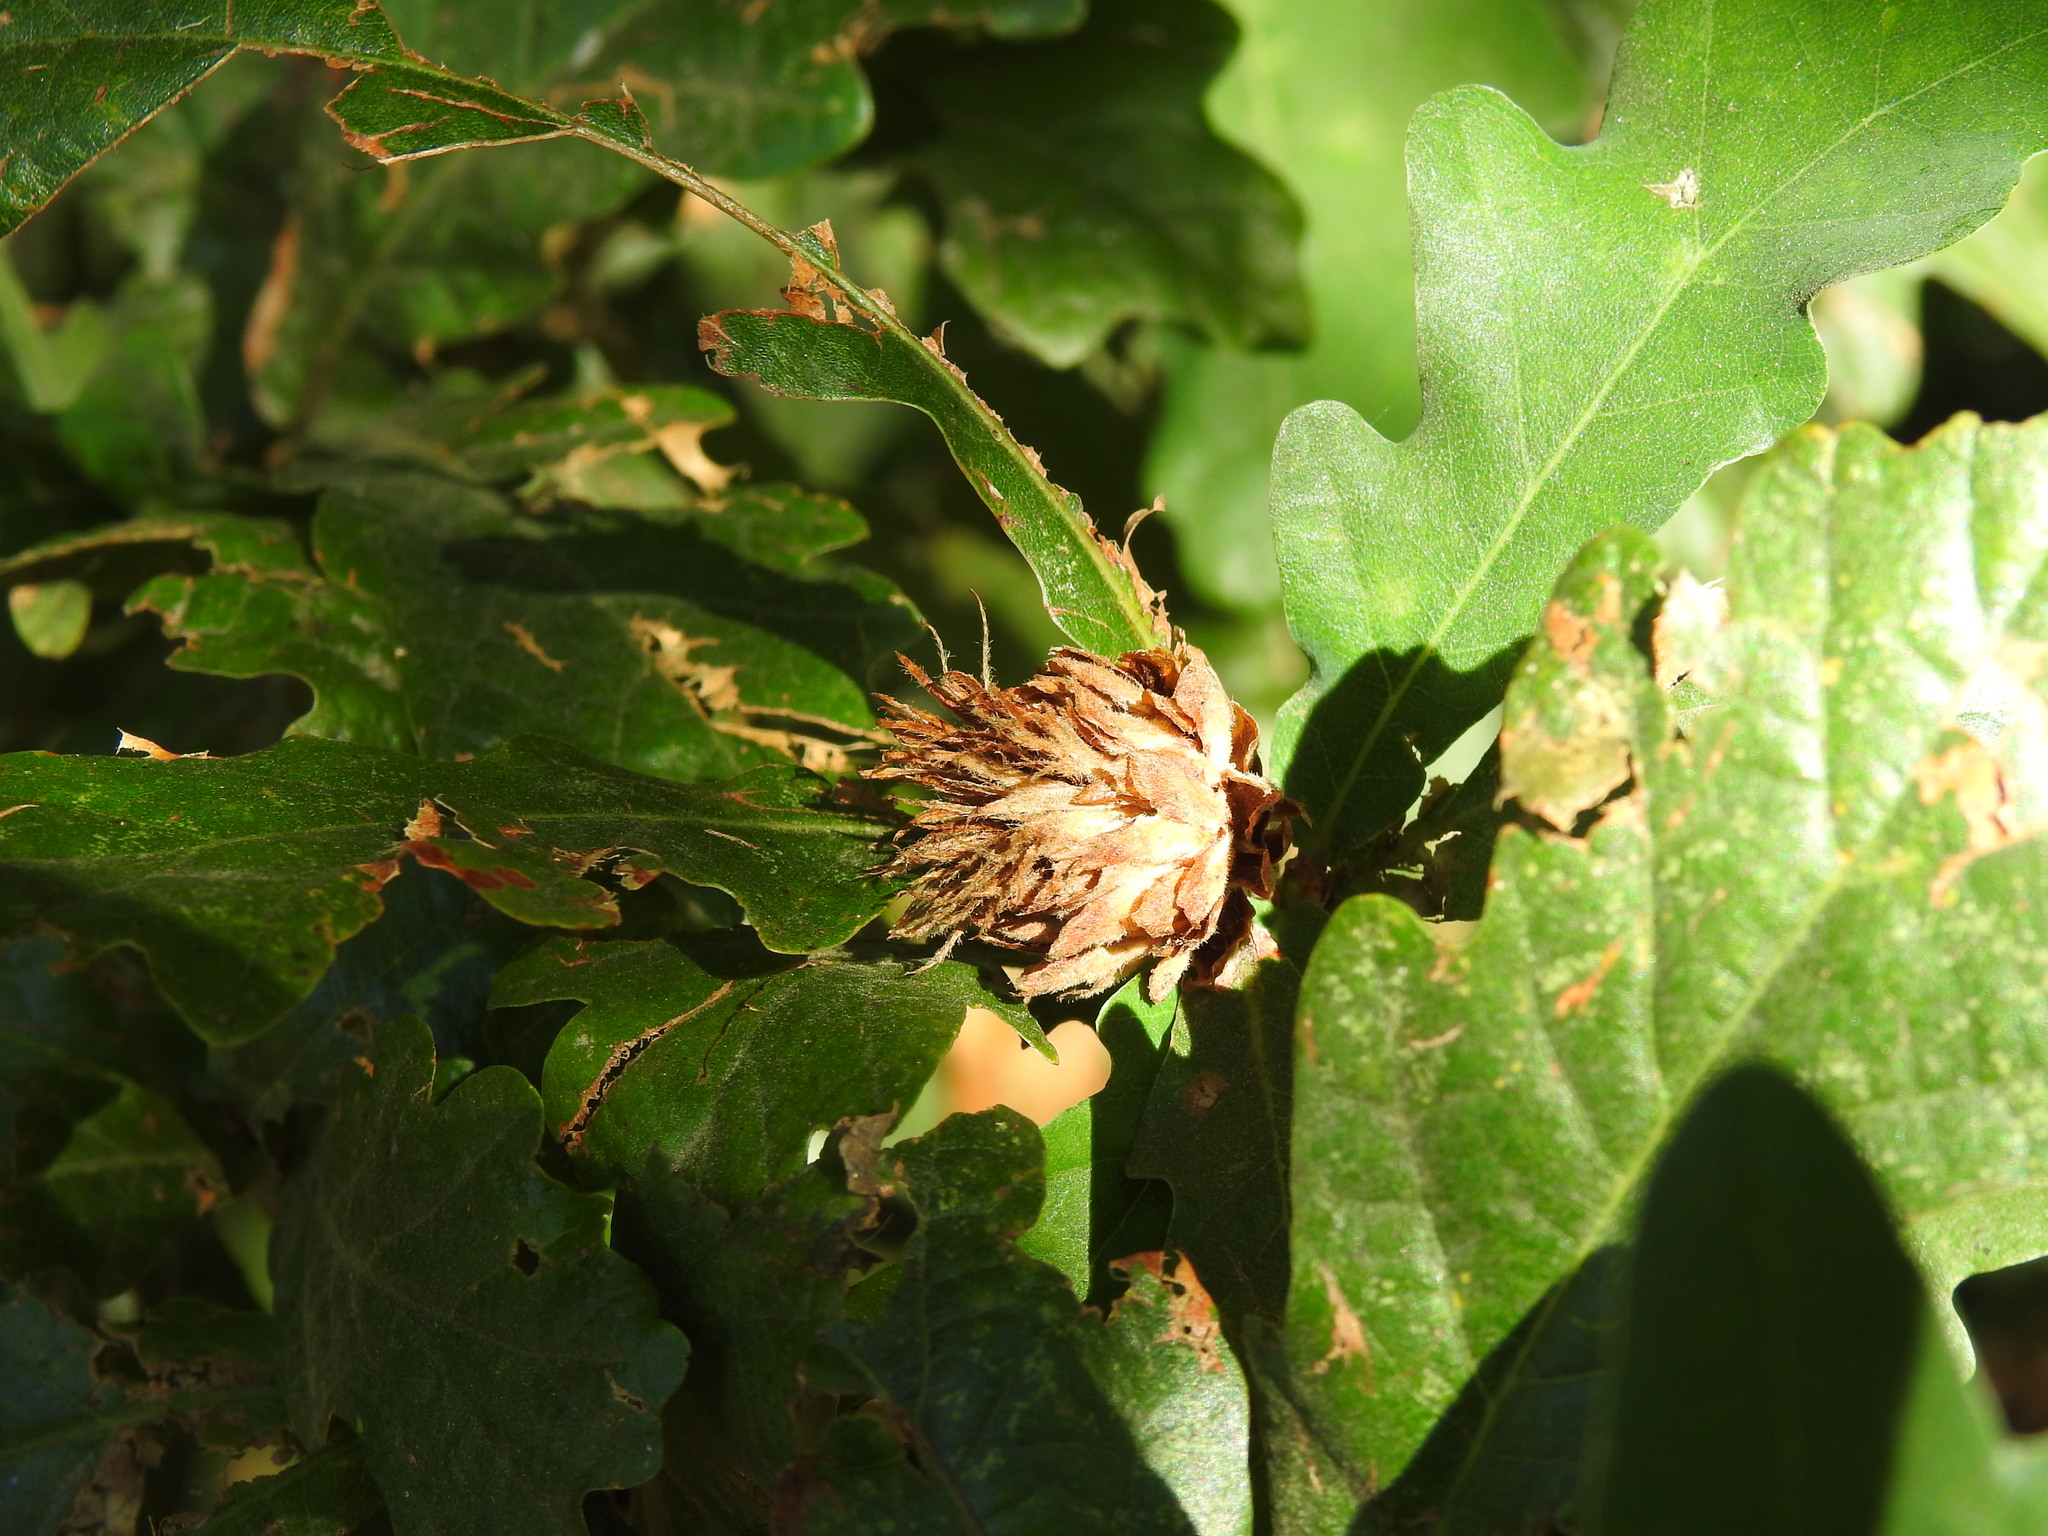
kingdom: Animalia
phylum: Arthropoda
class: Insecta
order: Hymenoptera
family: Cynipidae
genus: Andricus
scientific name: Andricus foecundatrix
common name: Artichoke gall
